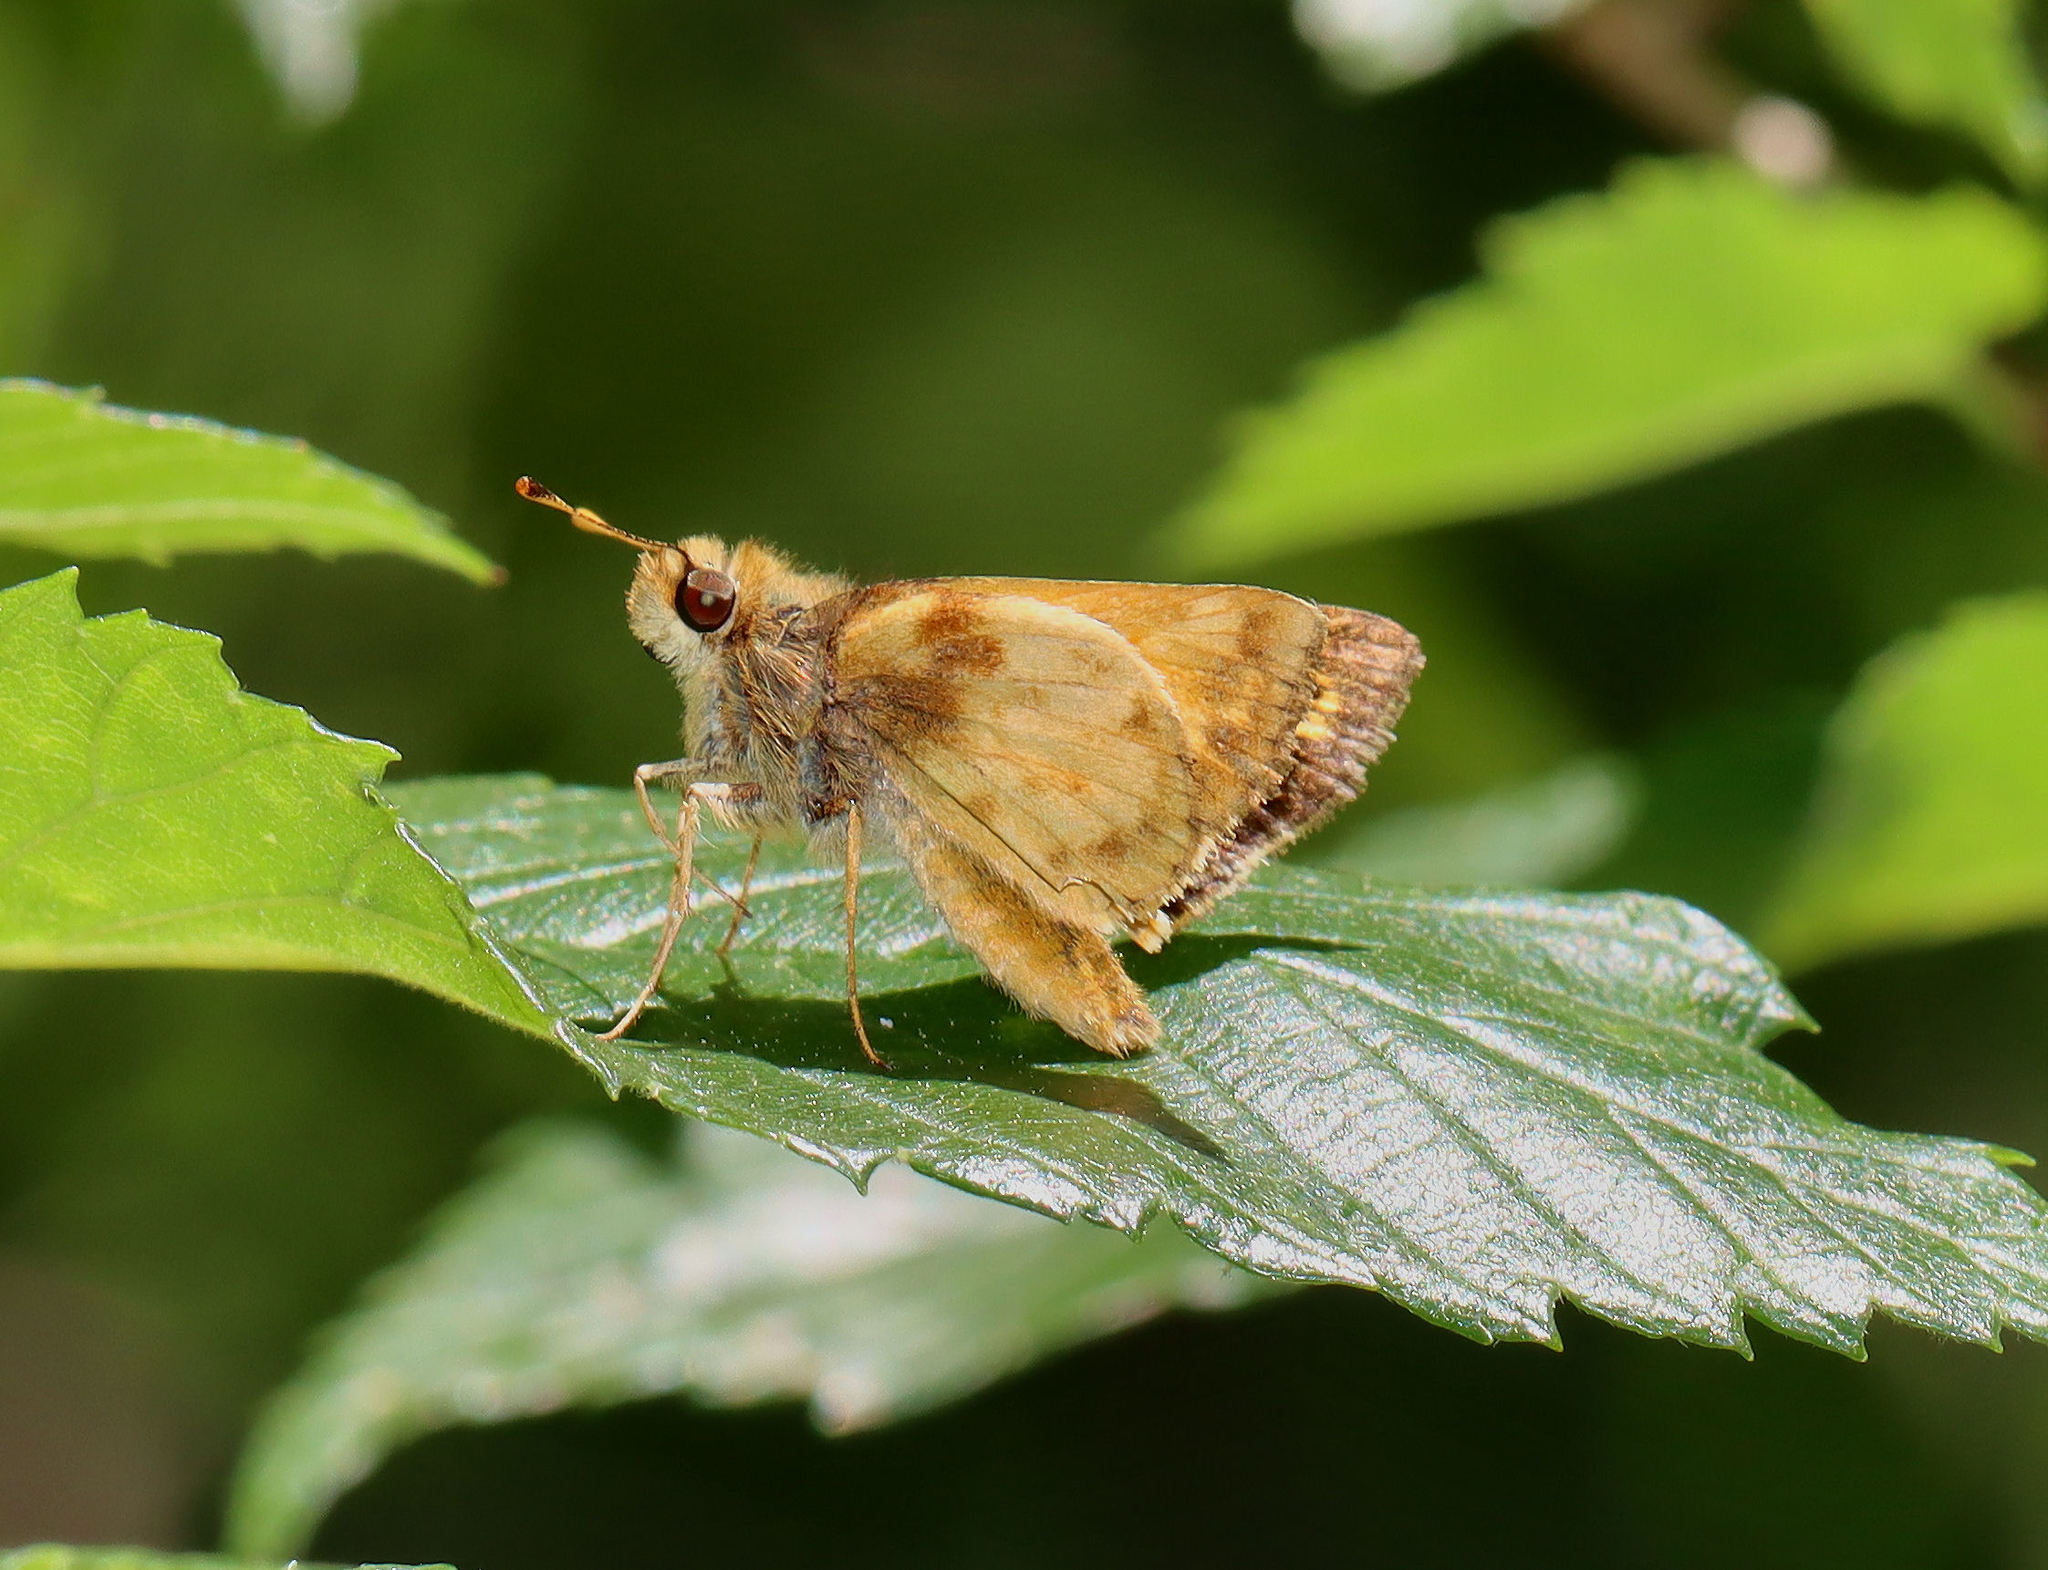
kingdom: Animalia
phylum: Arthropoda
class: Insecta
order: Lepidoptera
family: Hesperiidae
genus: Lon
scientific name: Lon zabulon
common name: Zabulon skipper
